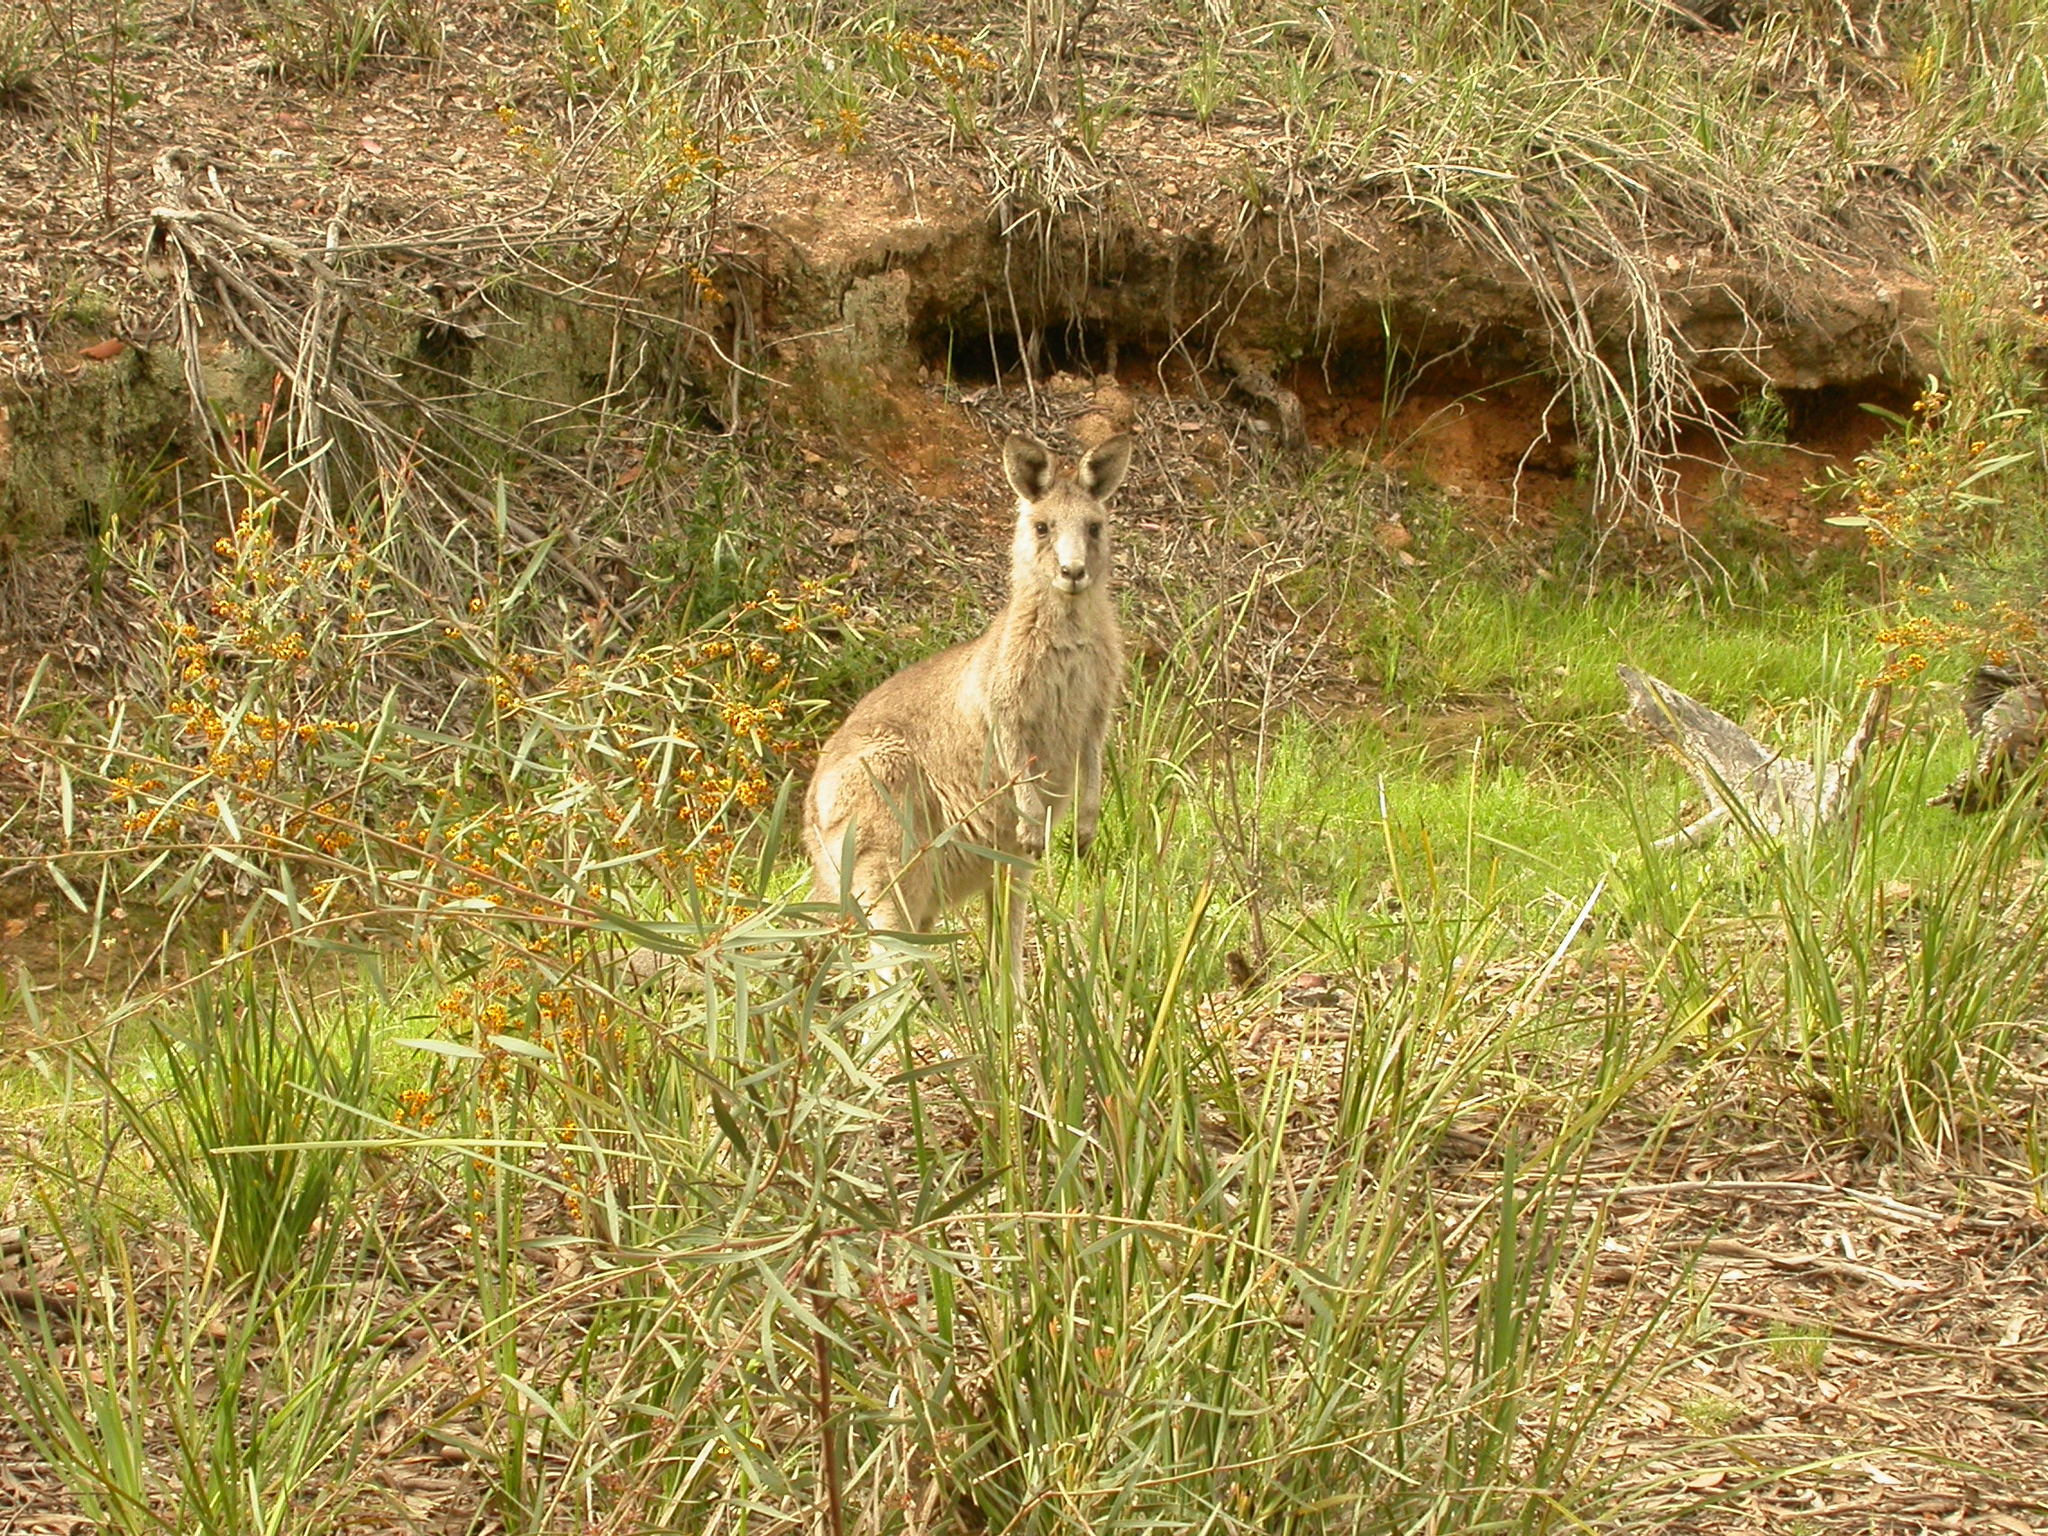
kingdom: Animalia
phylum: Chordata
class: Mammalia
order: Diprotodontia
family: Macropodidae
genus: Macropus
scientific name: Macropus giganteus
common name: Eastern grey kangaroo
